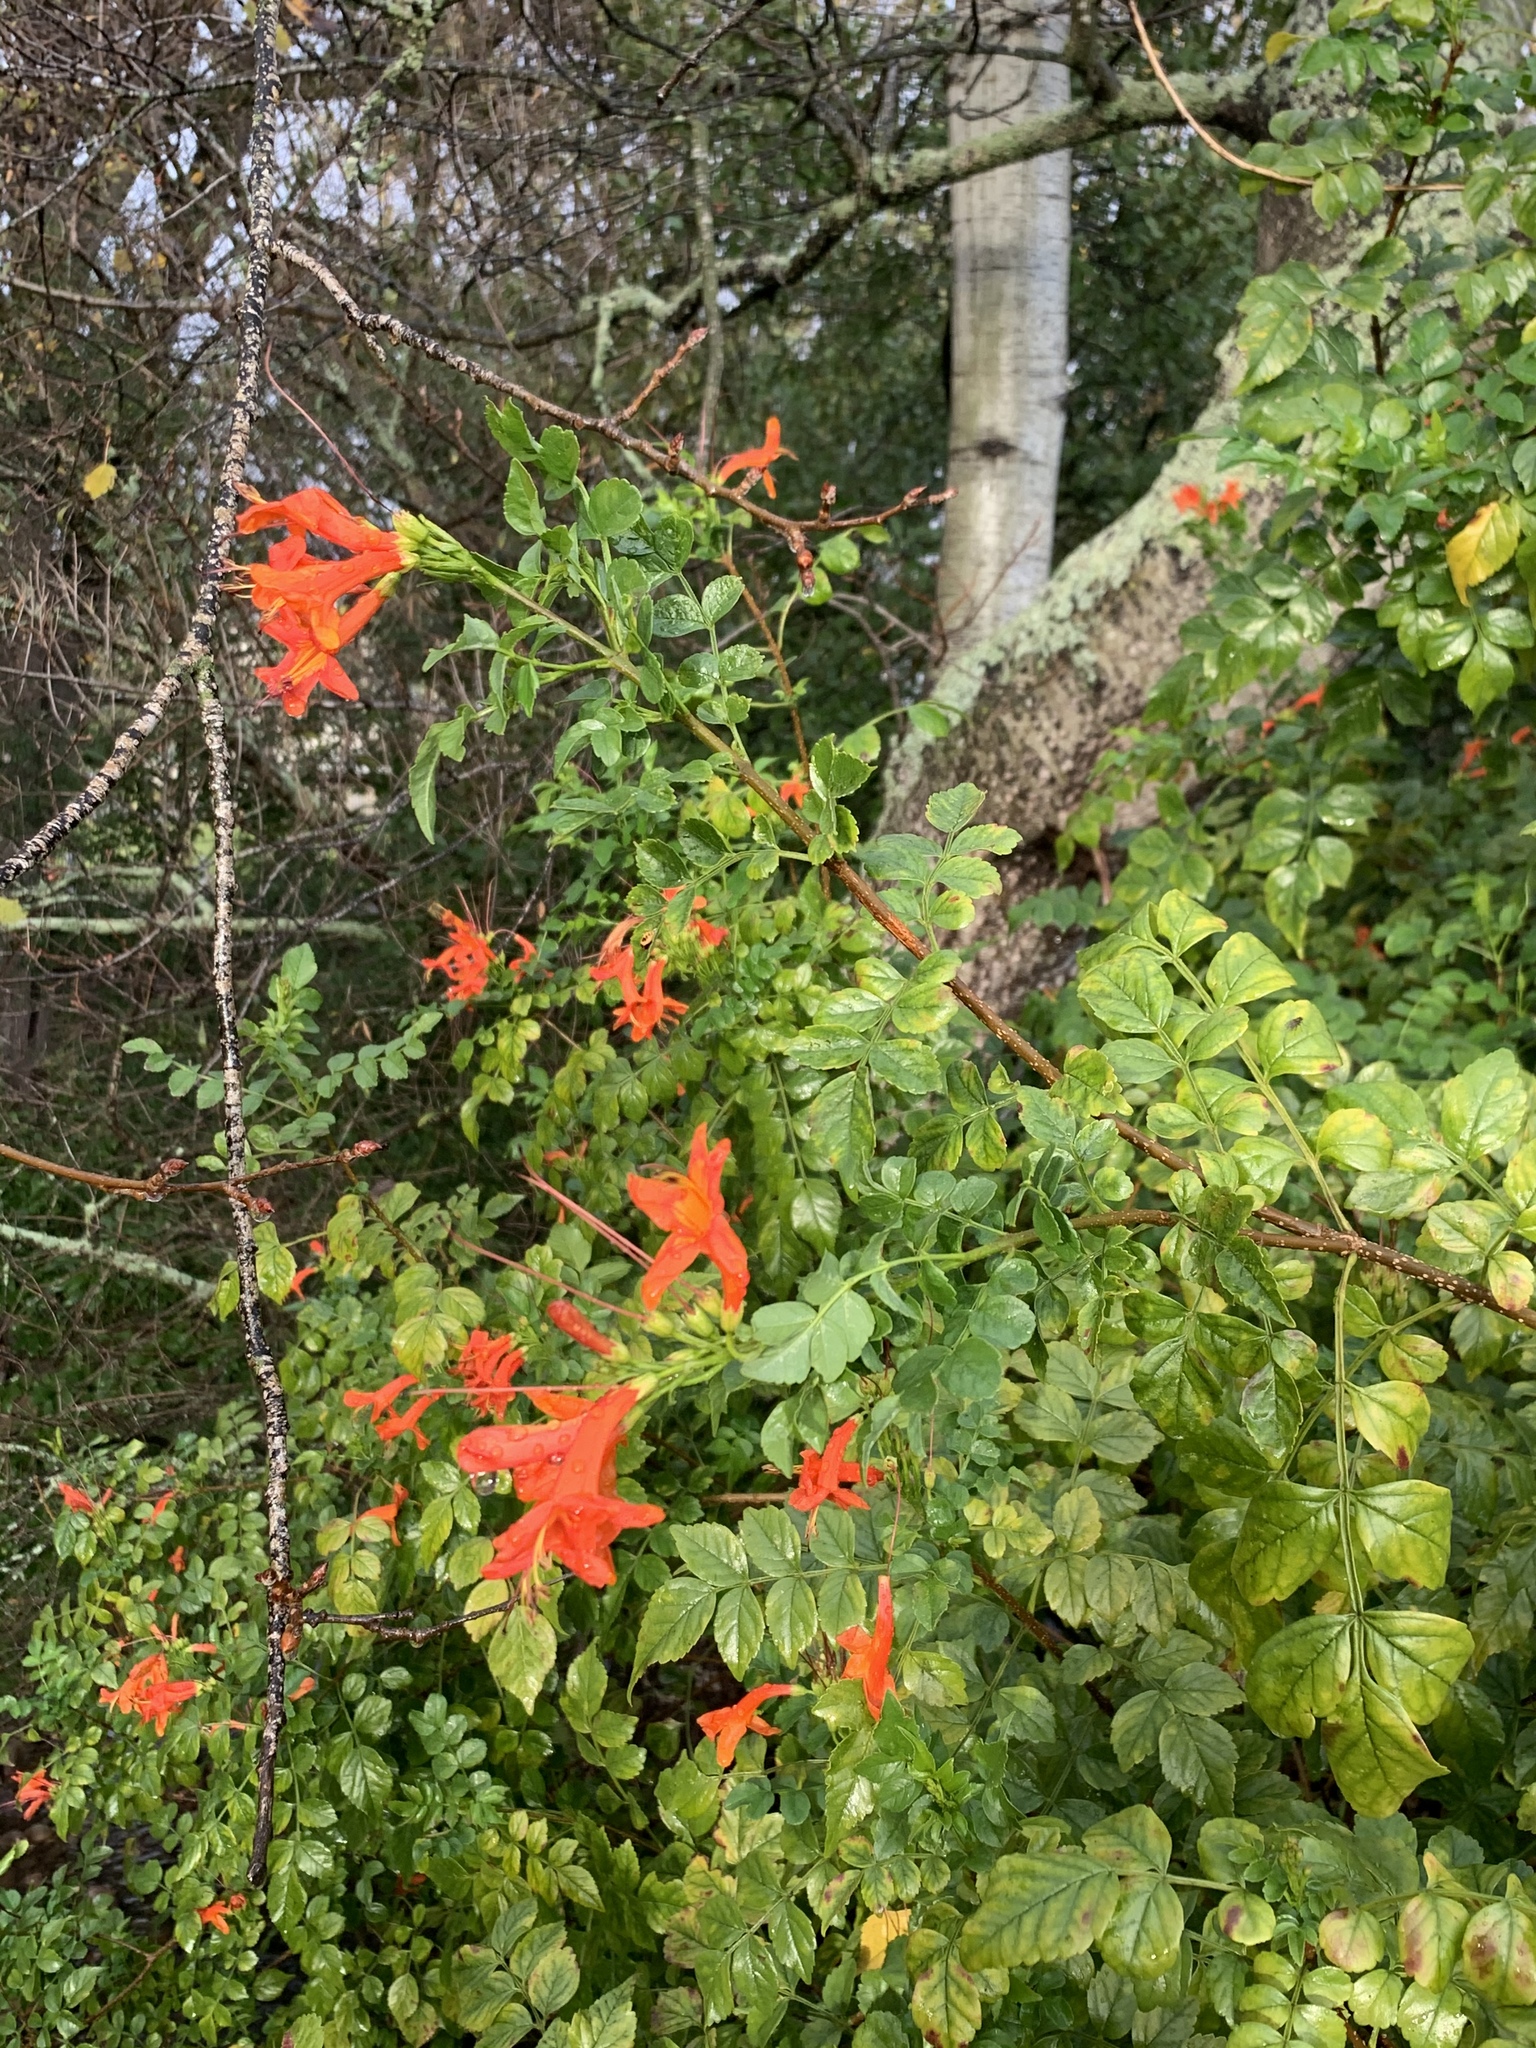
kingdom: Plantae
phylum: Tracheophyta
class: Magnoliopsida
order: Lamiales
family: Bignoniaceae
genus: Tecomaria
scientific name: Tecomaria capensis
